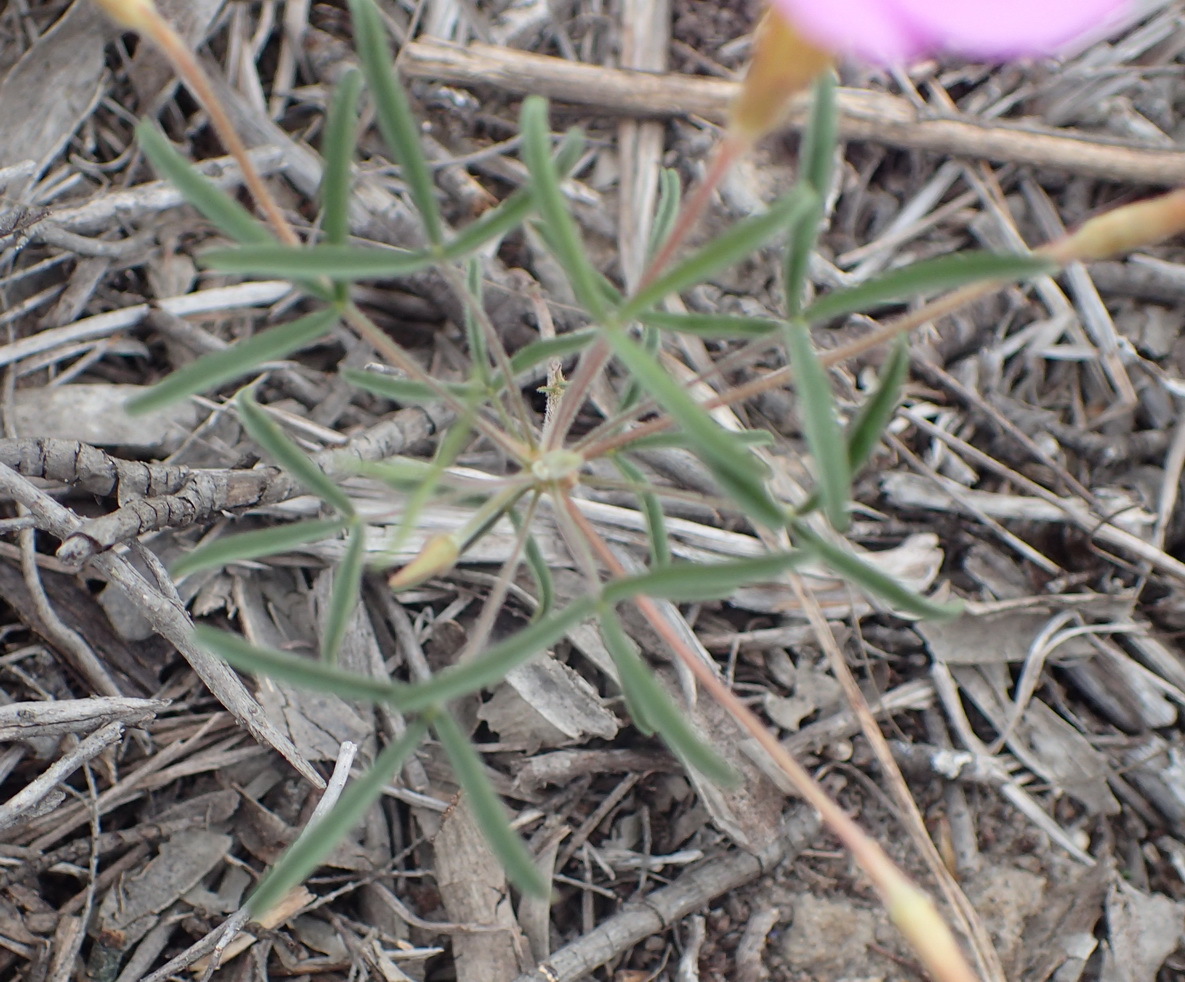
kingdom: Plantae
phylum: Tracheophyta
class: Magnoliopsida
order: Oxalidales
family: Oxalidaceae
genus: Oxalis
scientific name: Oxalis ciliaris
